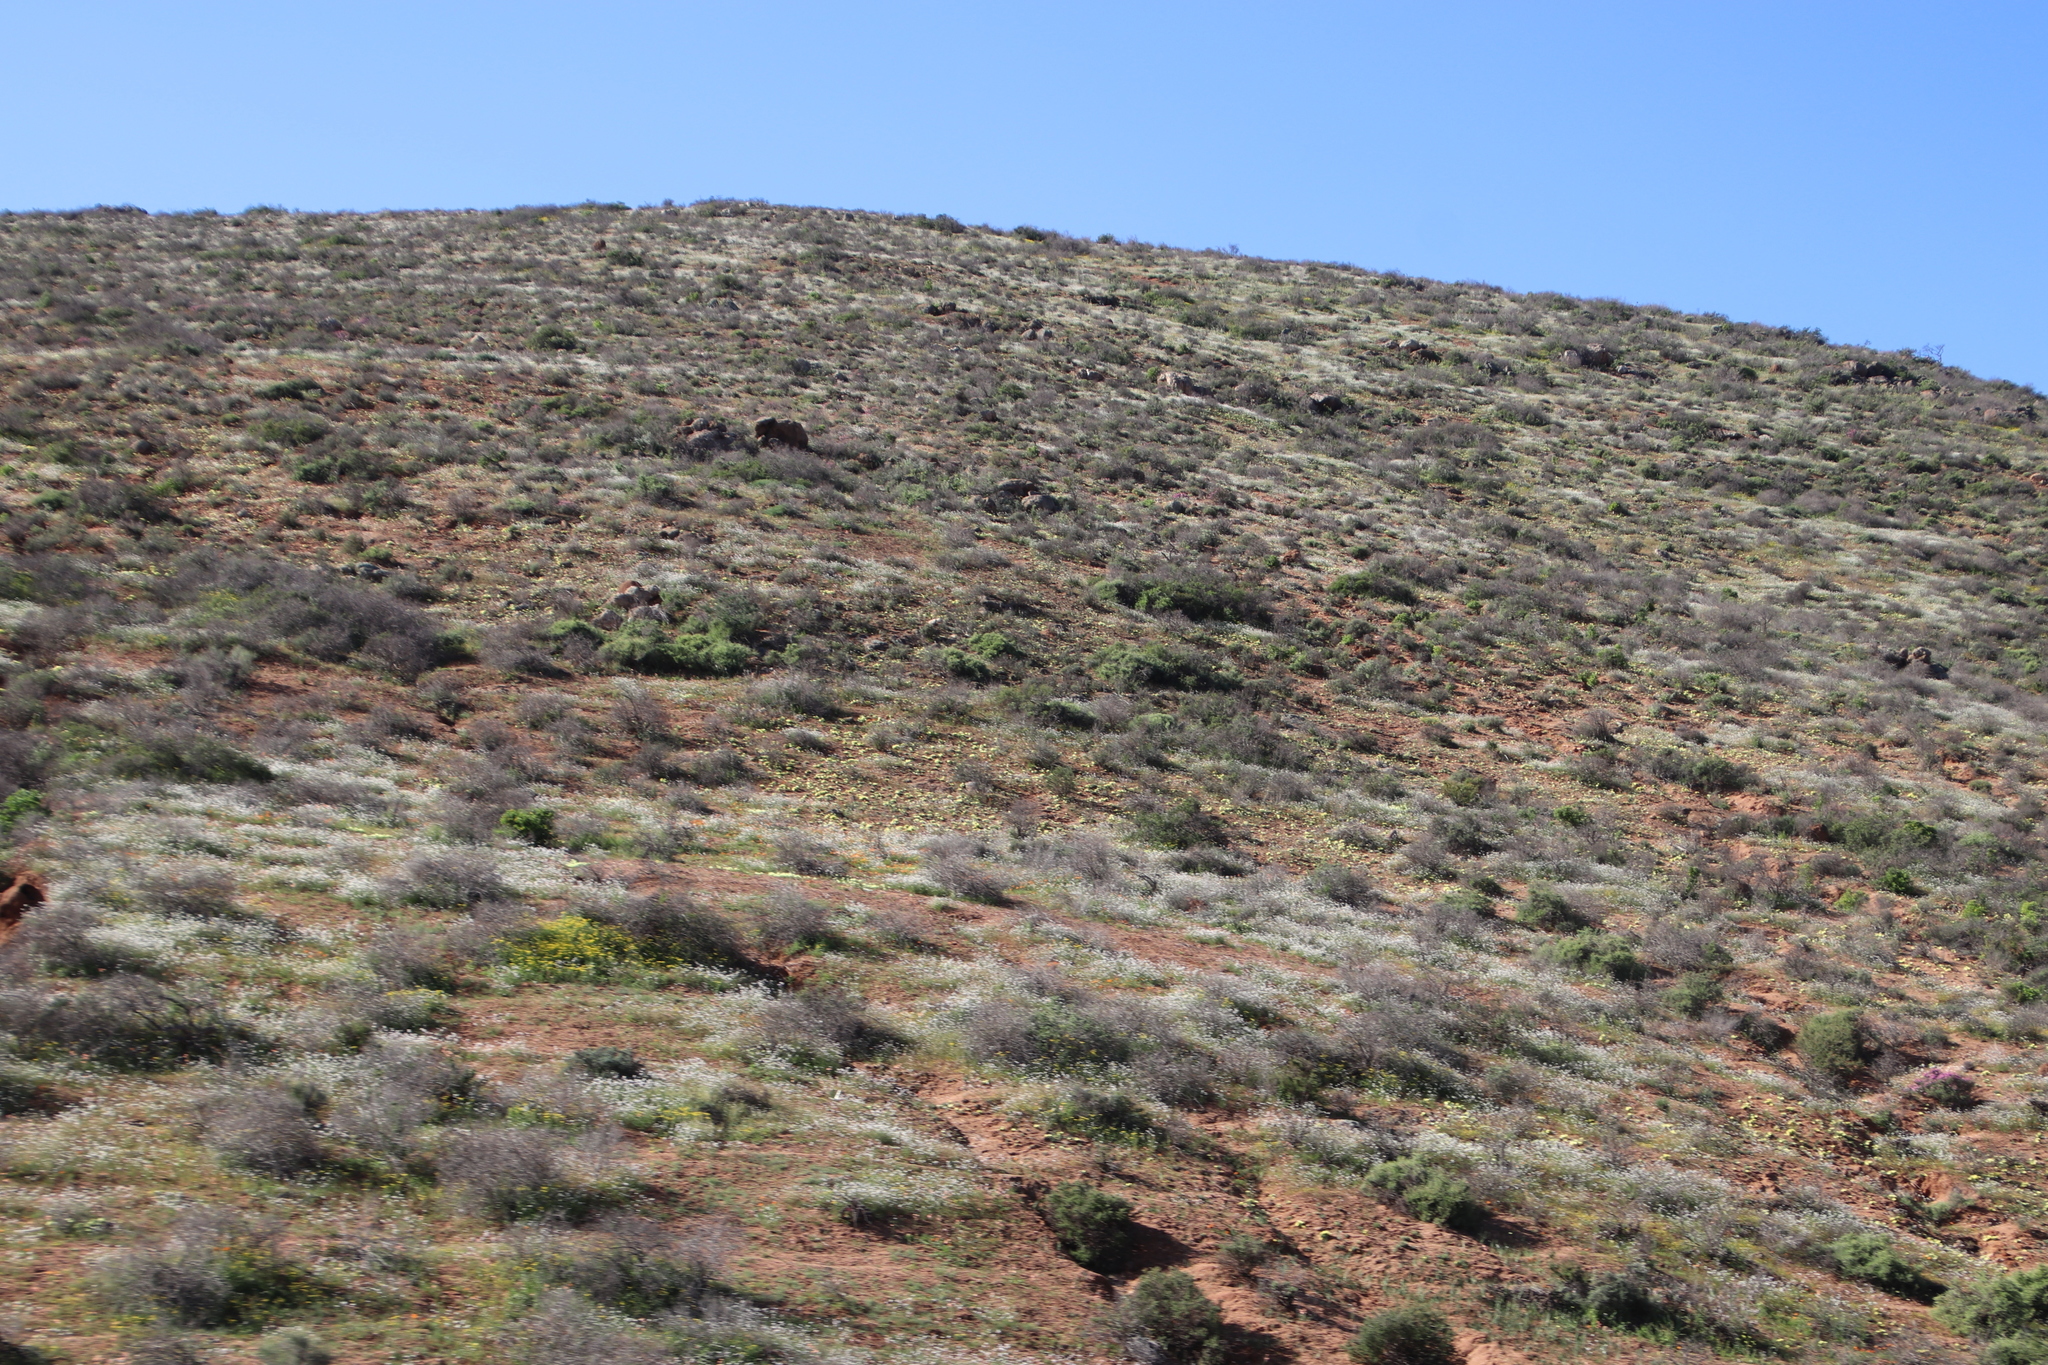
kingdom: Plantae
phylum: Tracheophyta
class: Magnoliopsida
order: Brassicales
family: Brassicaceae
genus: Heliophila
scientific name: Heliophila variabilis
